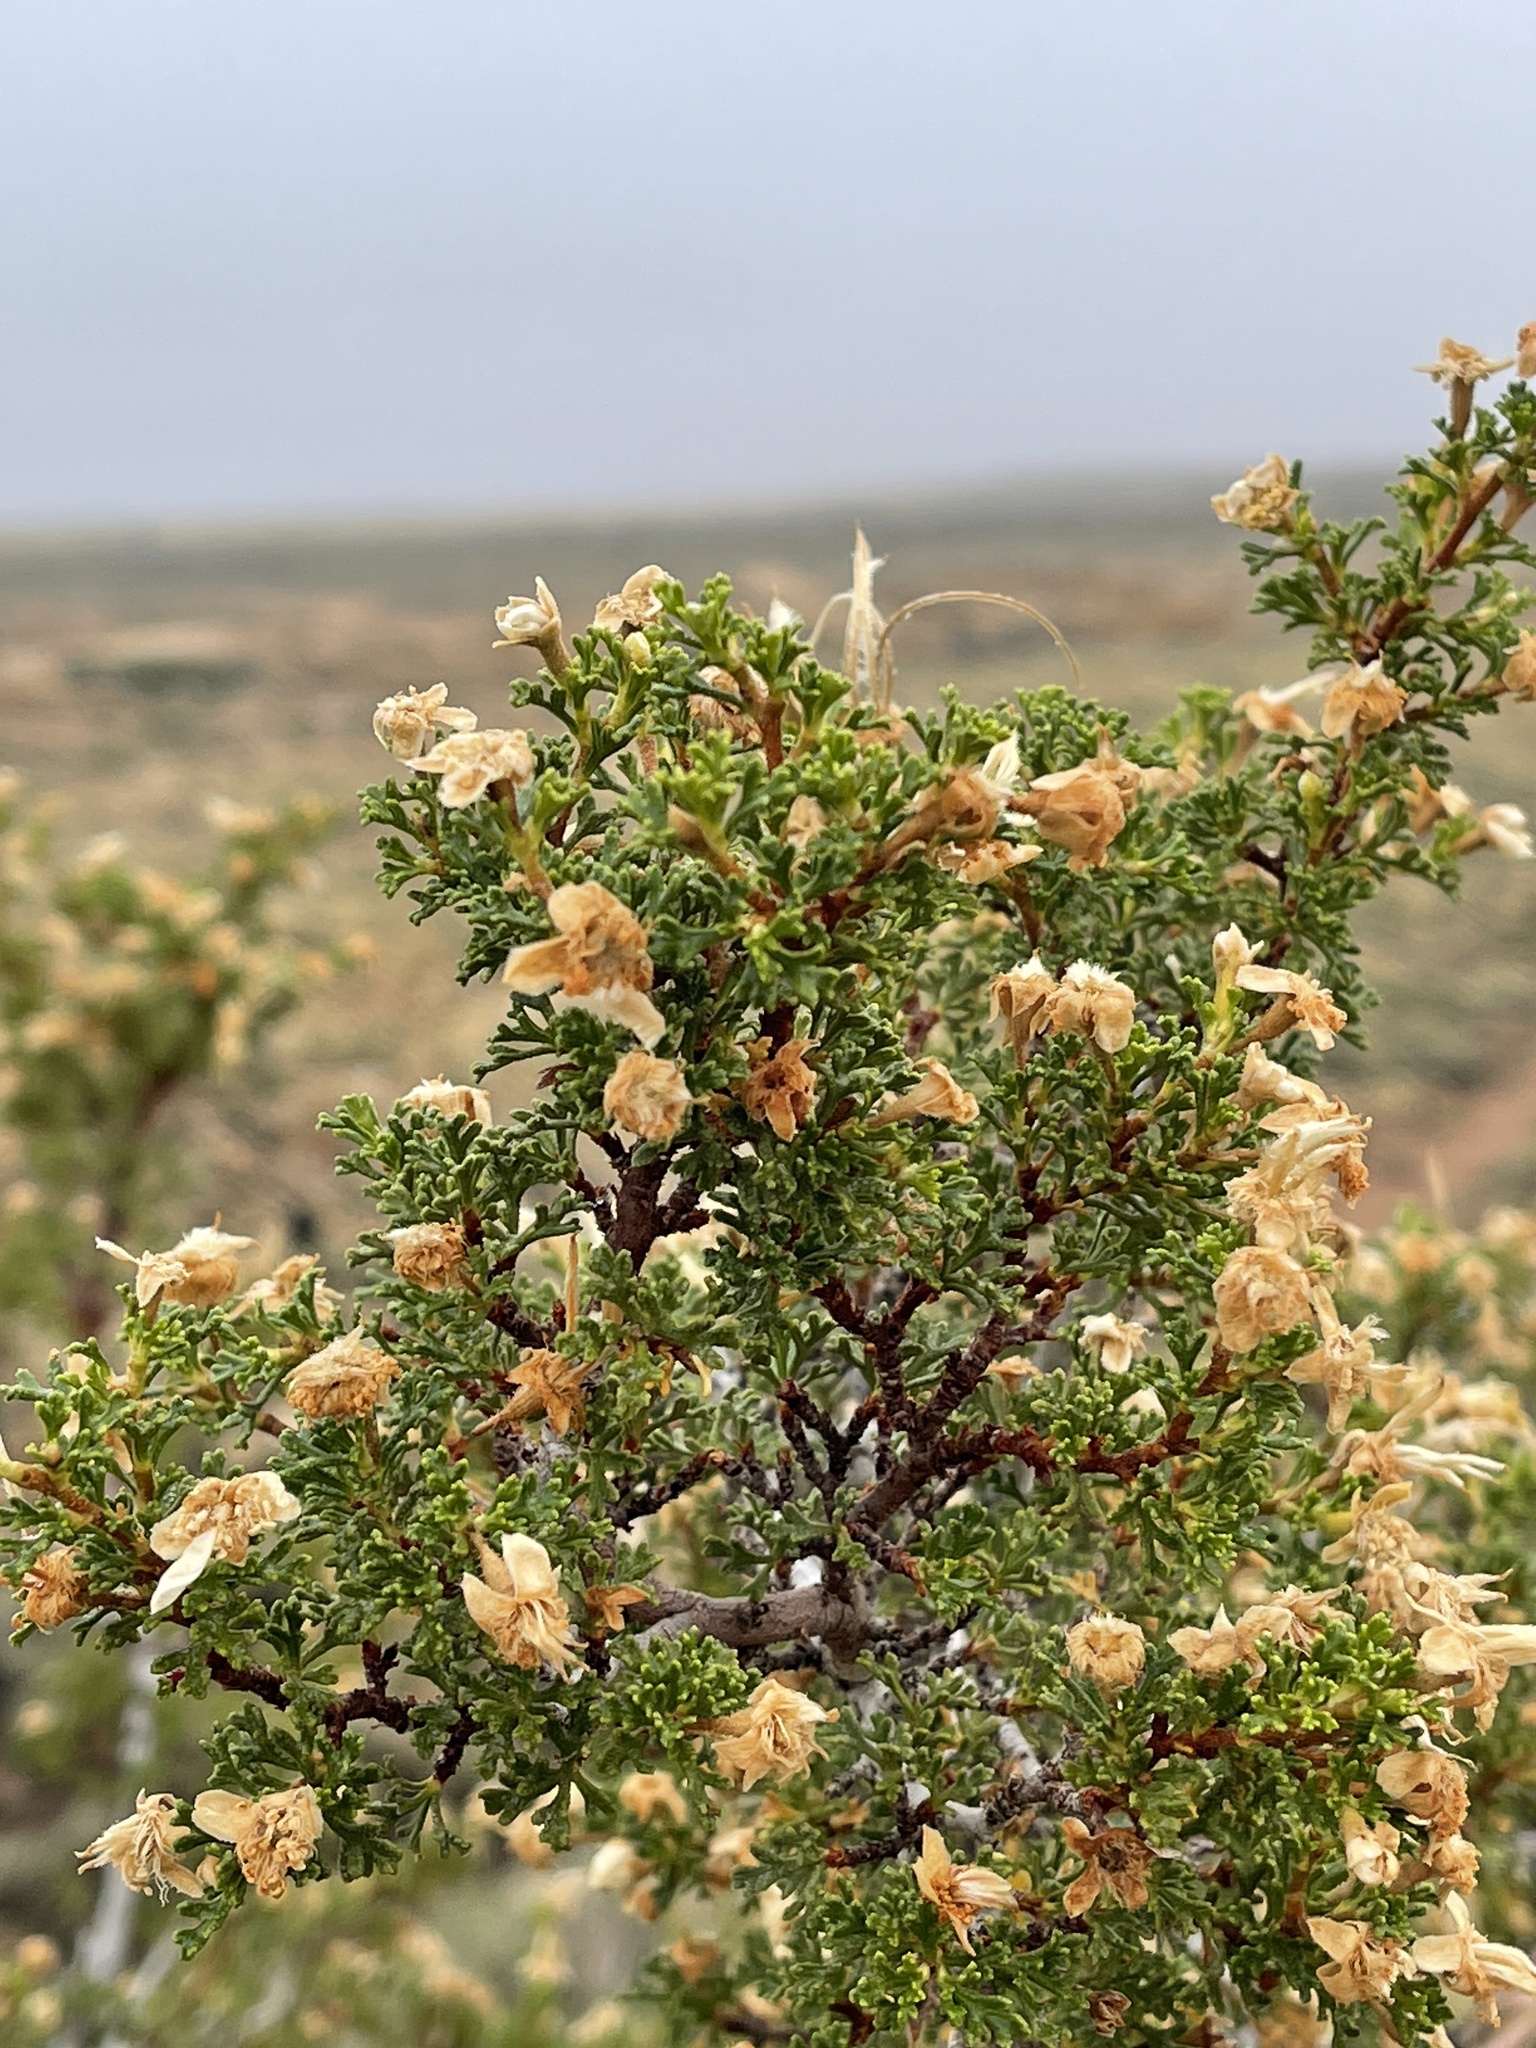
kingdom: Plantae
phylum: Tracheophyta
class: Magnoliopsida
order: Rosales
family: Rosaceae
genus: Purshia
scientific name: Purshia stansburiana
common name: Stansbury's cliffrose
